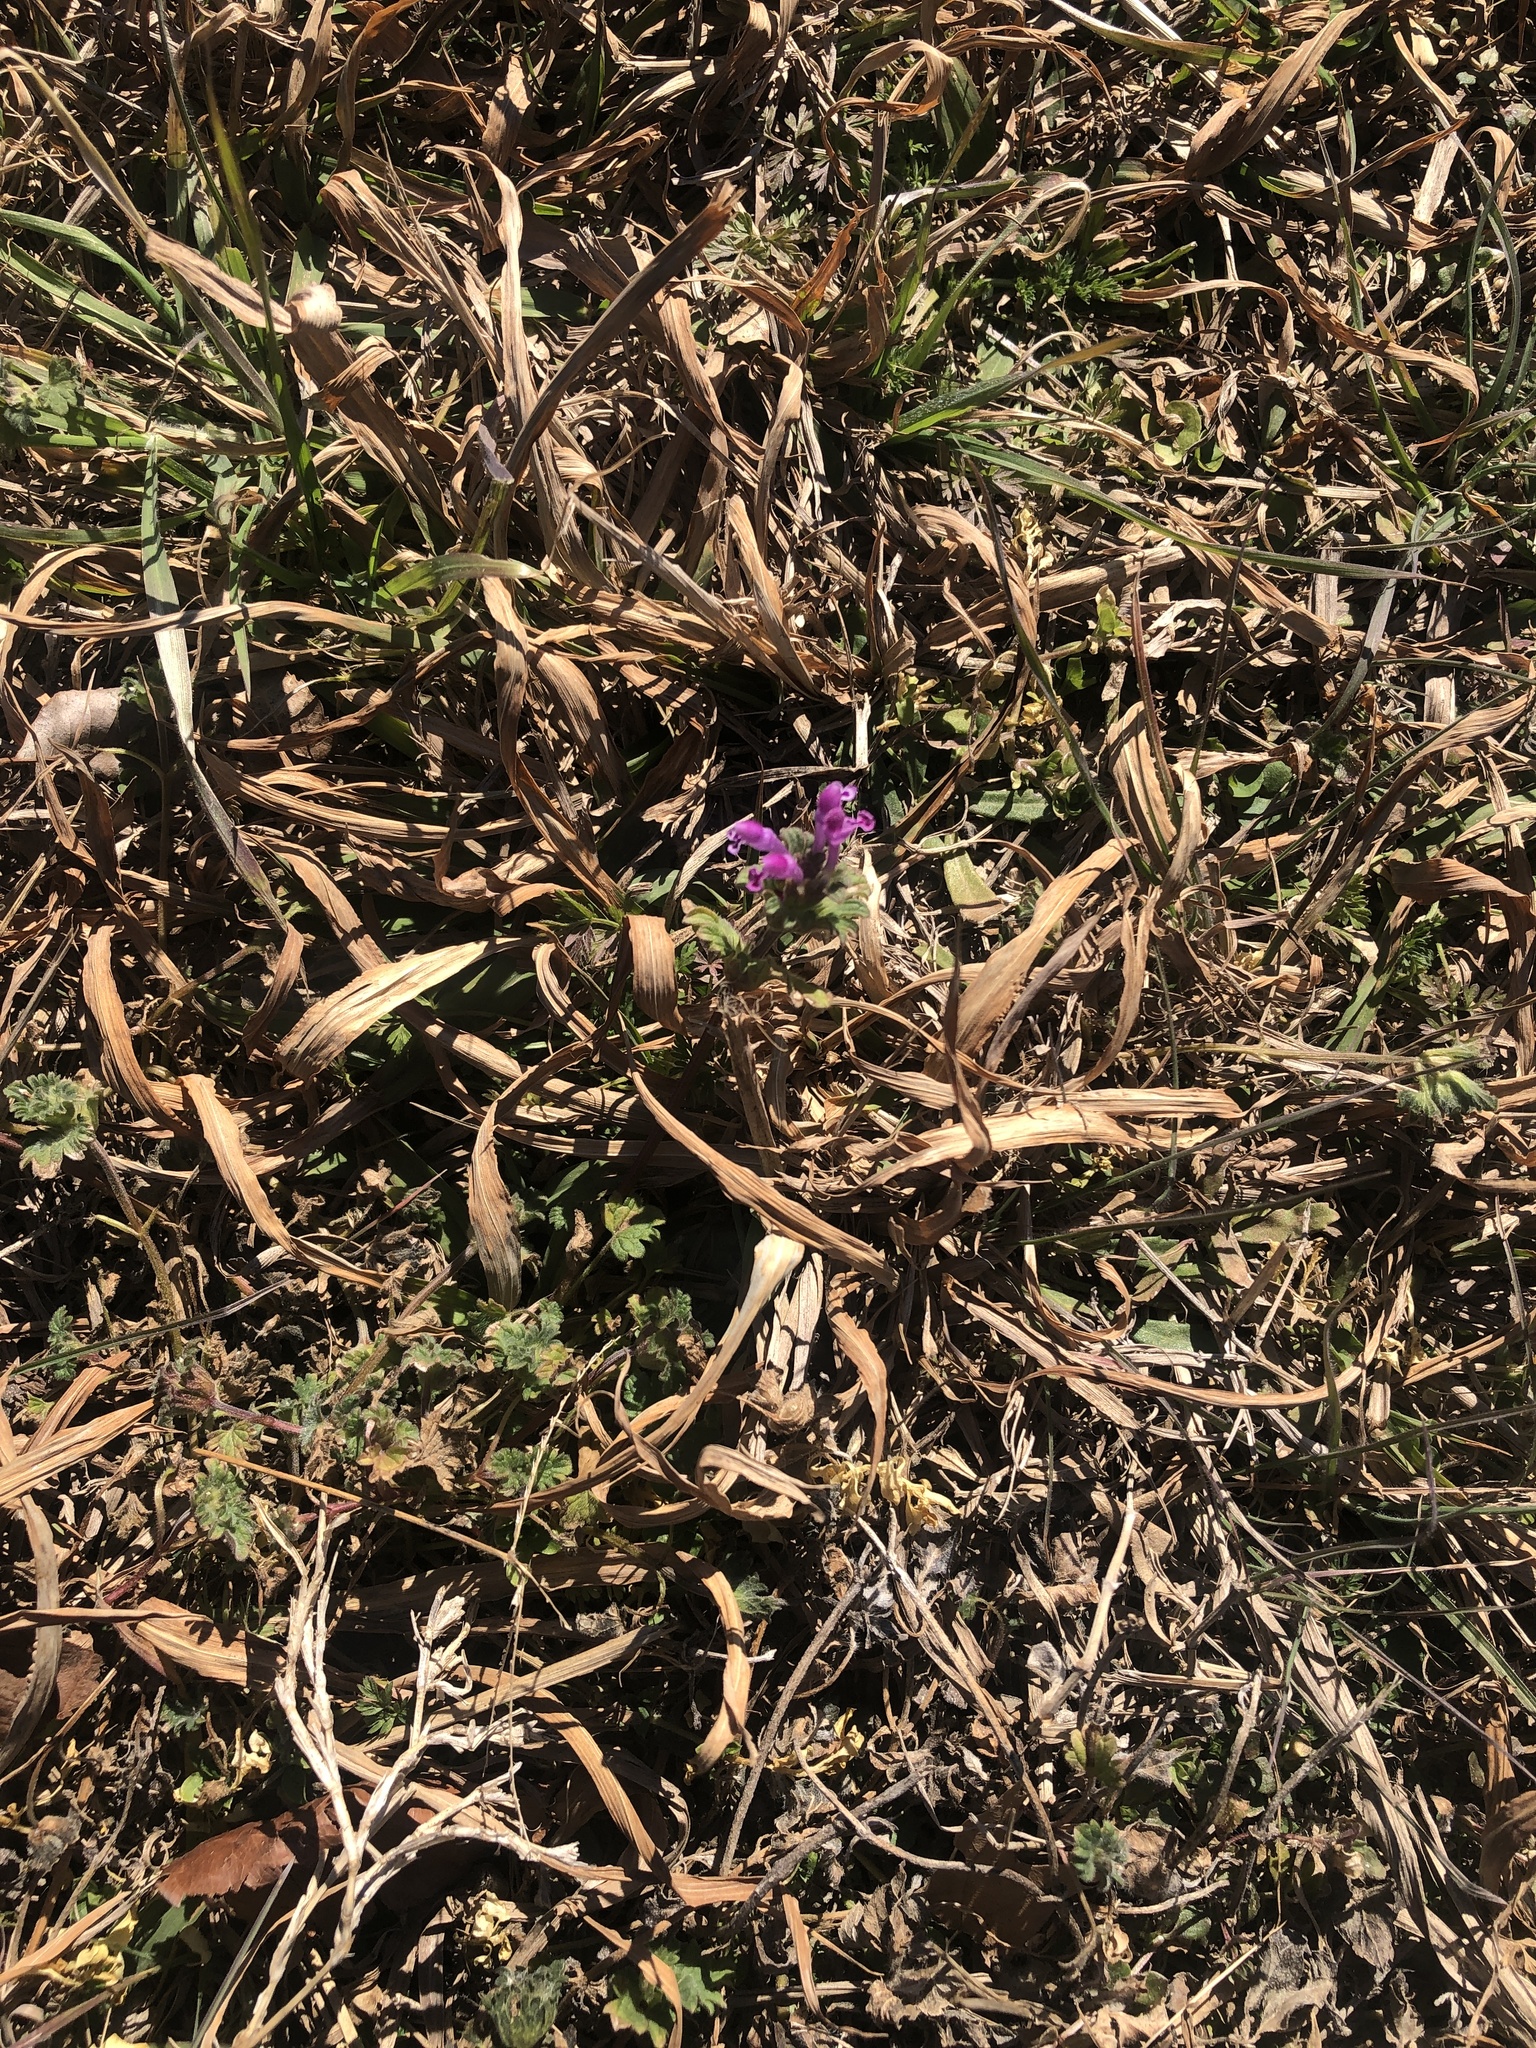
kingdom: Plantae
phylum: Tracheophyta
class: Magnoliopsida
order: Lamiales
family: Lamiaceae
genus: Lamium
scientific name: Lamium amplexicaule
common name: Henbit dead-nettle
